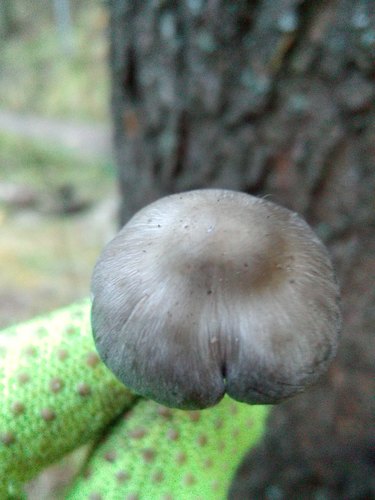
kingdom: Fungi
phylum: Basidiomycota
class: Agaricomycetes
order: Agaricales
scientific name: Agaricales
